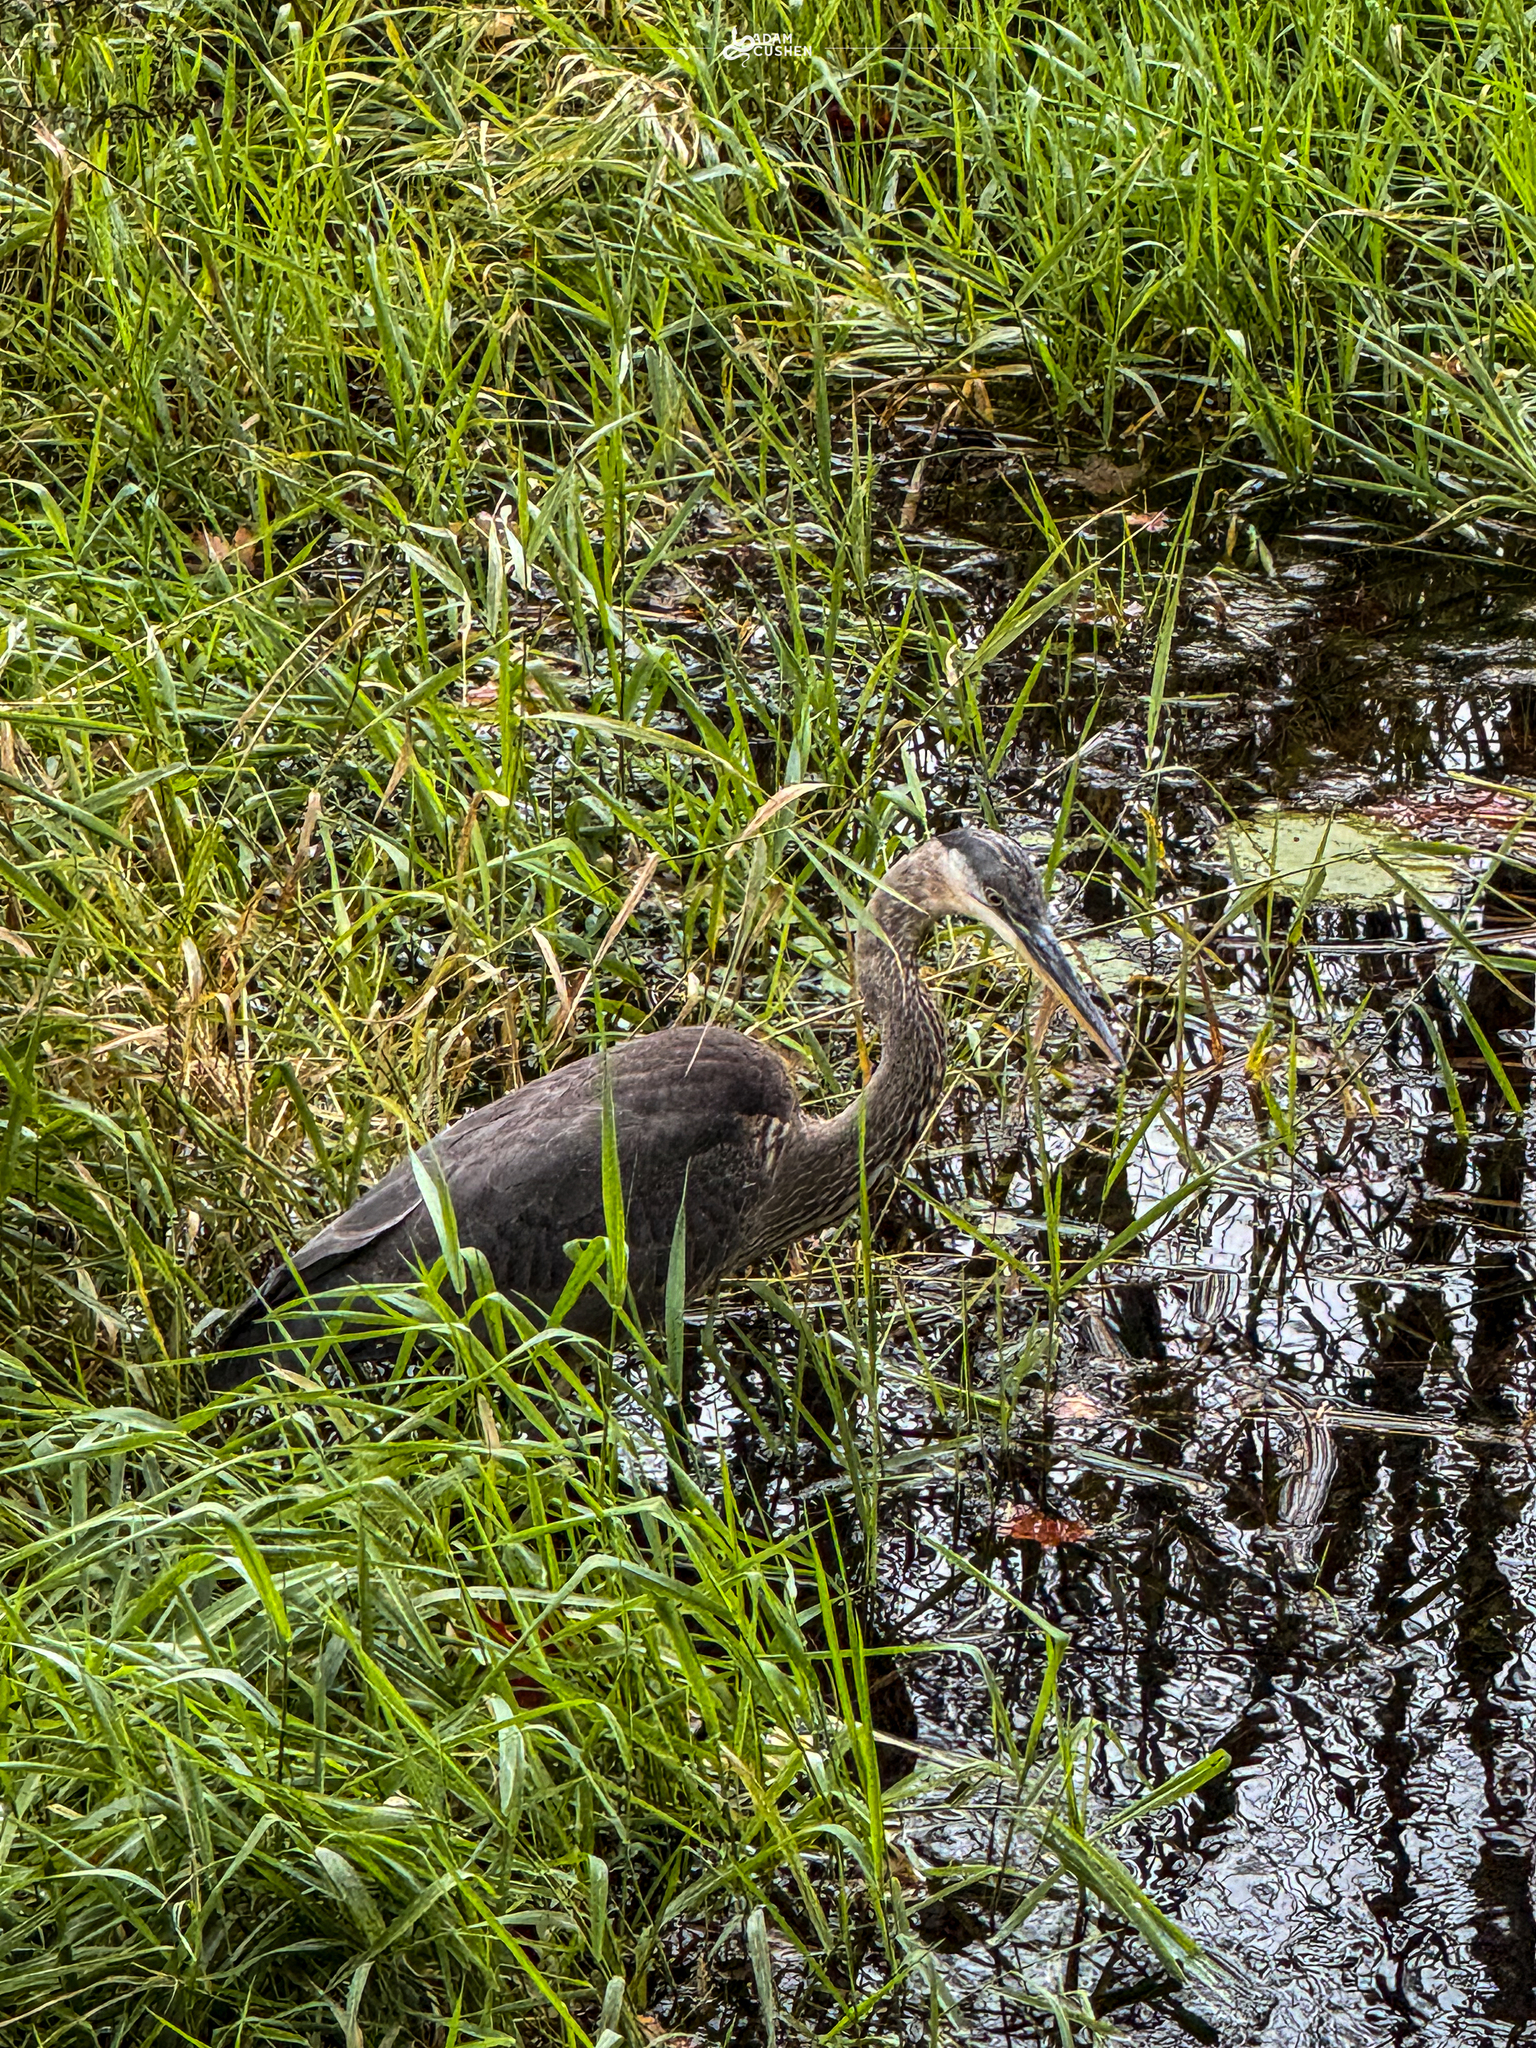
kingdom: Animalia
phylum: Chordata
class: Aves
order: Pelecaniformes
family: Ardeidae
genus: Ardea
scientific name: Ardea herodias
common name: Great blue heron
